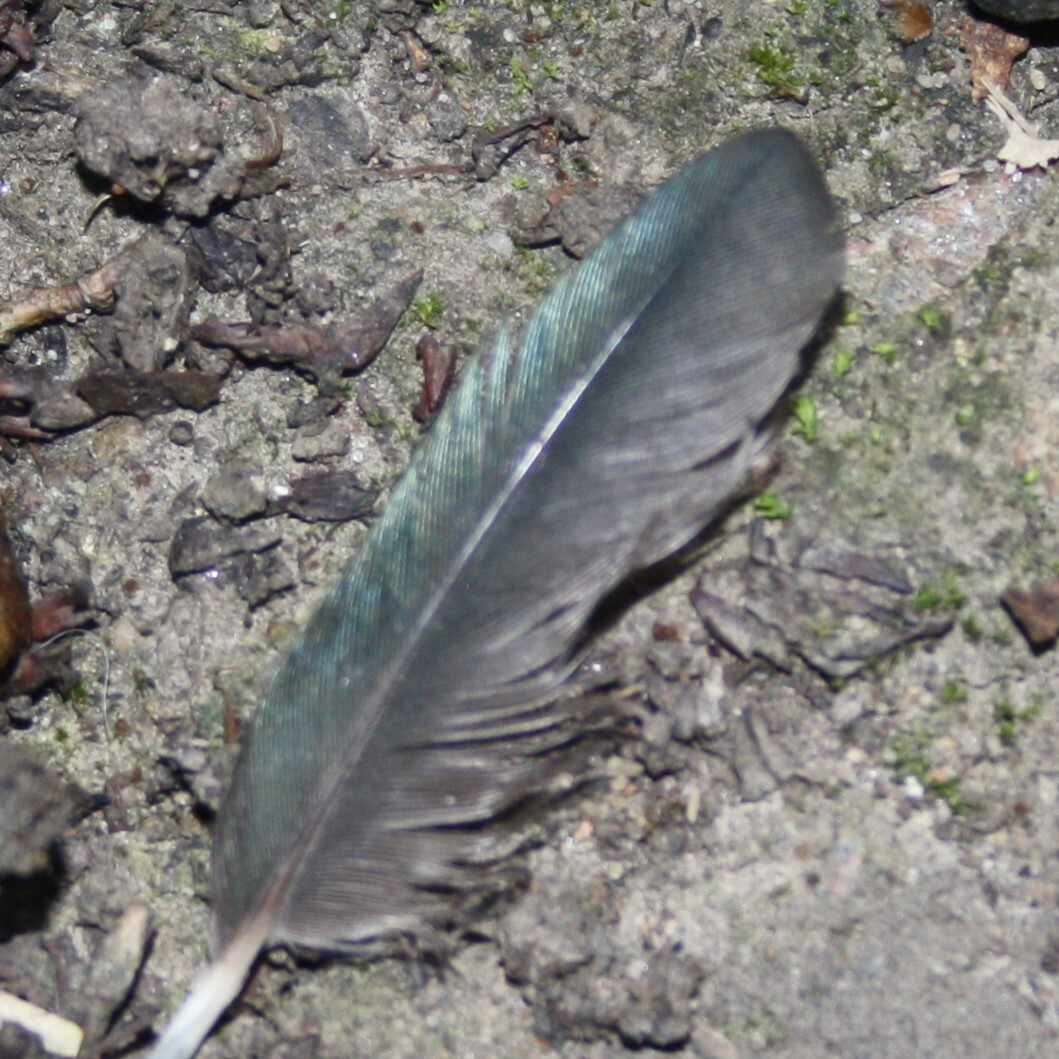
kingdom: Animalia
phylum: Chordata
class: Aves
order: Passeriformes
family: Corvidae
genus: Pica
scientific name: Pica pica
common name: Eurasian magpie
